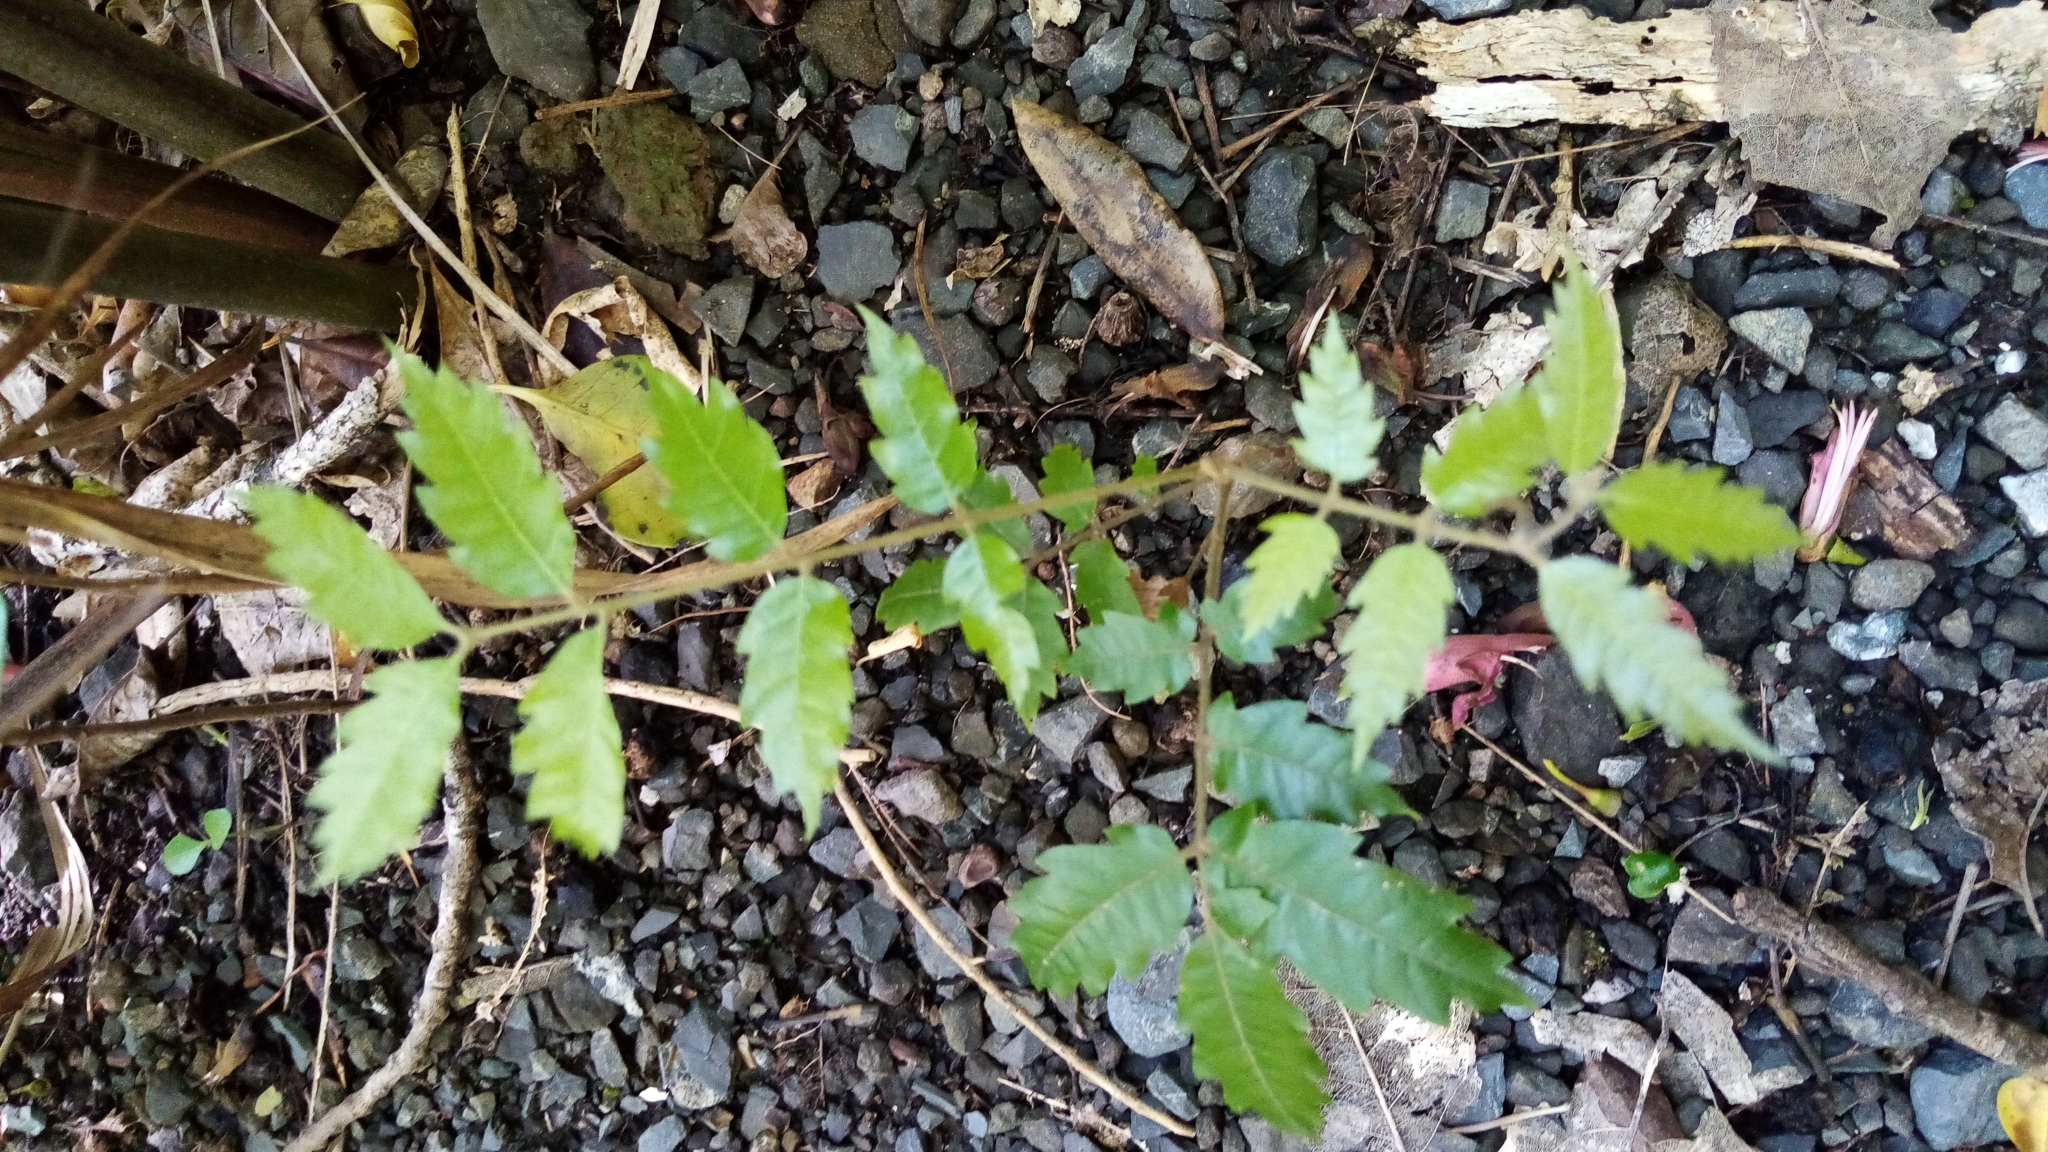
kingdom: Plantae
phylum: Tracheophyta
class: Magnoliopsida
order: Sapindales
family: Sapindaceae
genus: Alectryon
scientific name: Alectryon excelsus
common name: Three kings titoki
